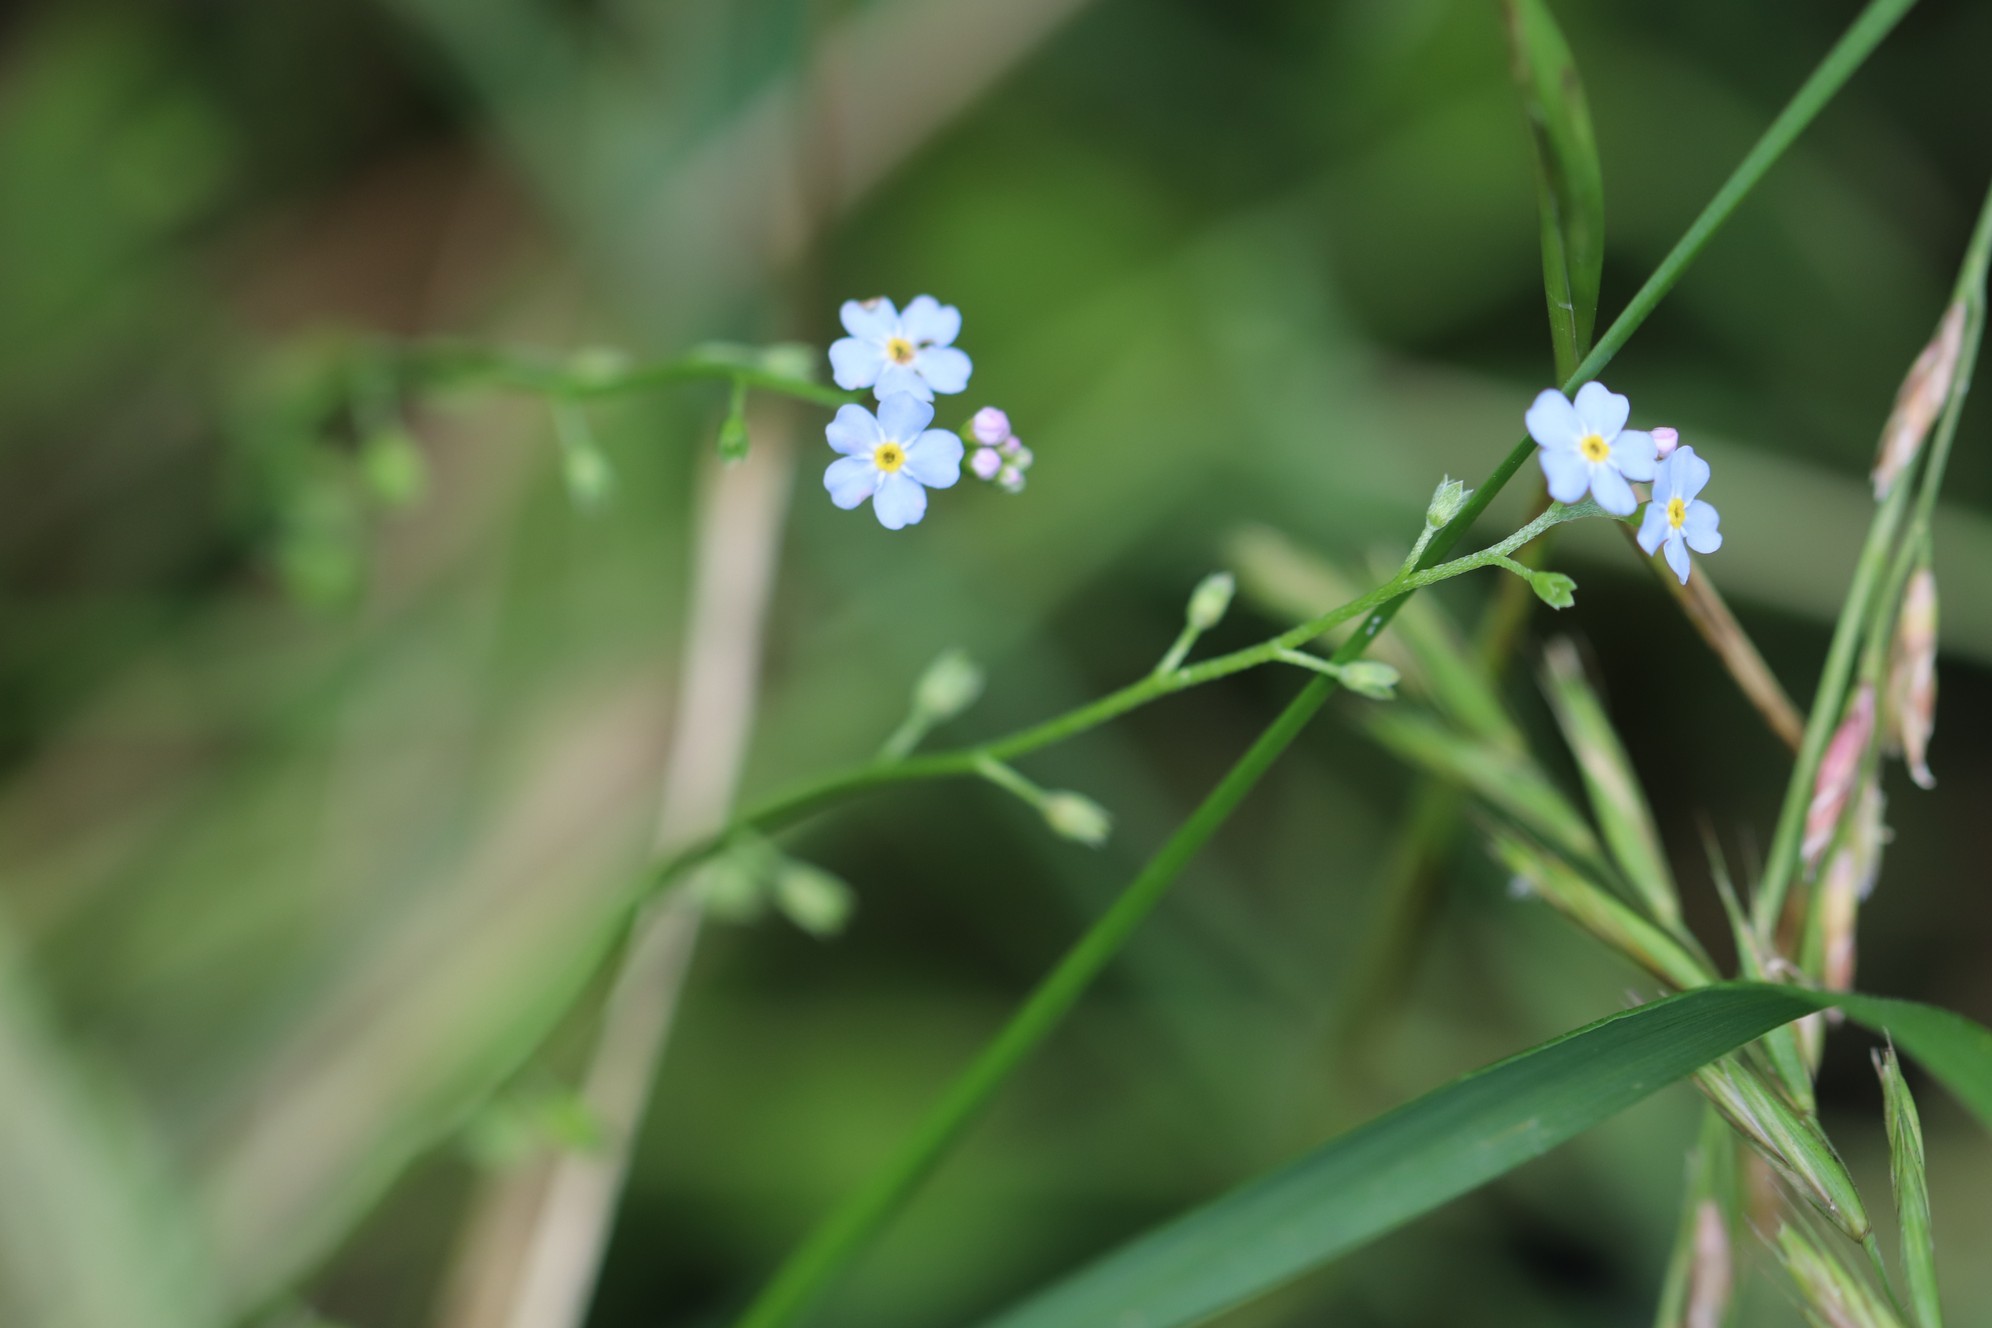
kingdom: Plantae
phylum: Tracheophyta
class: Magnoliopsida
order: Boraginales
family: Boraginaceae
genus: Myosotis
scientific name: Myosotis scorpioides
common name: Water forget-me-not
